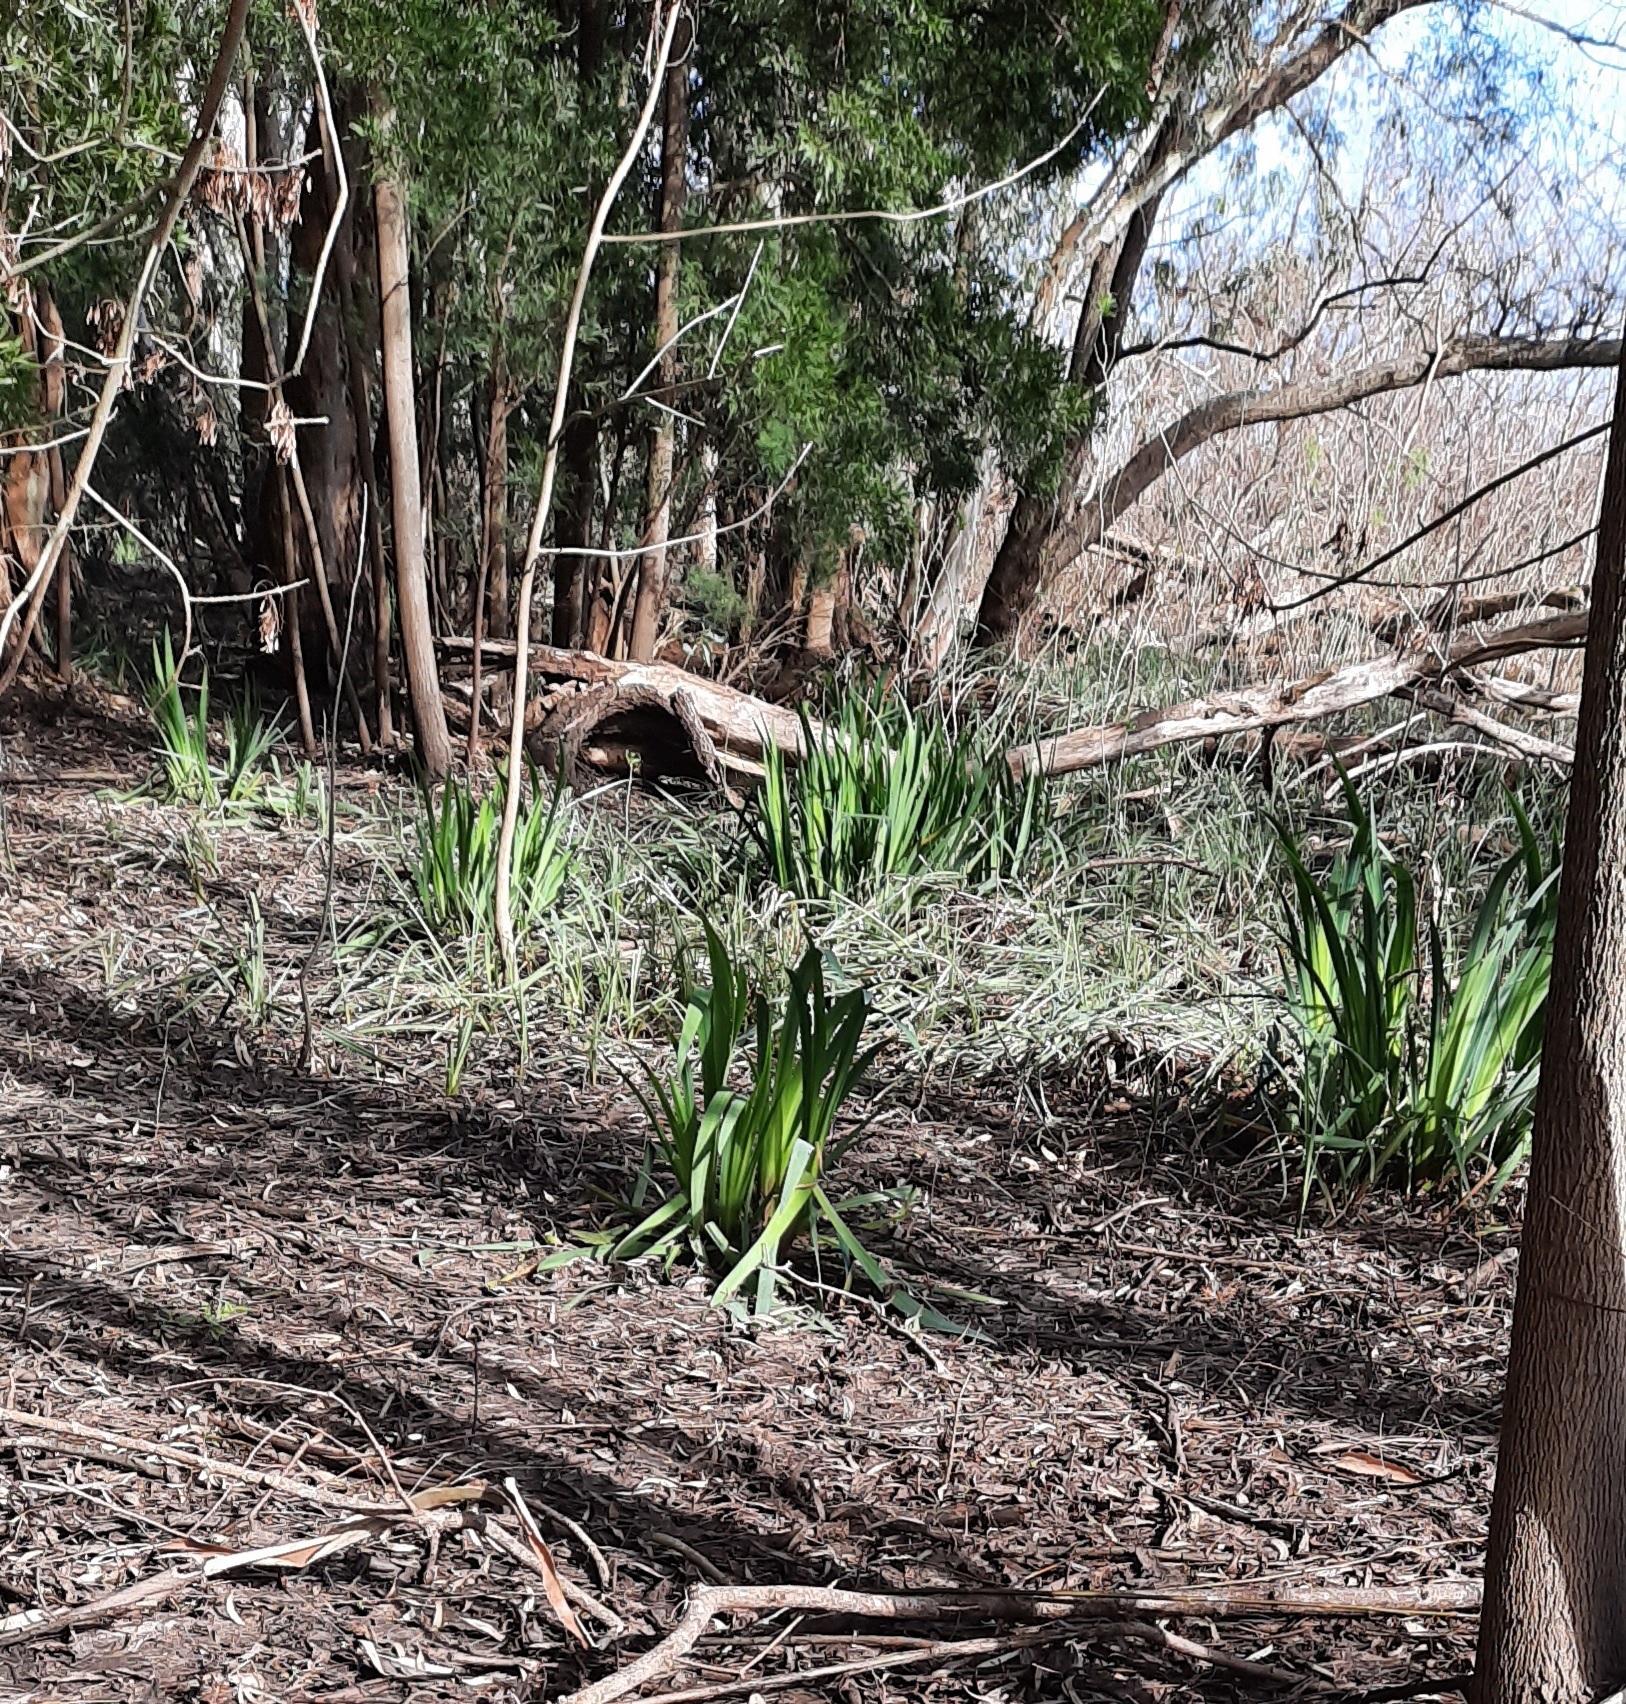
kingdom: Plantae
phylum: Tracheophyta
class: Liliopsida
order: Asparagales
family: Iridaceae
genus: Iris
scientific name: Iris pseudacorus
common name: Yellow flag
